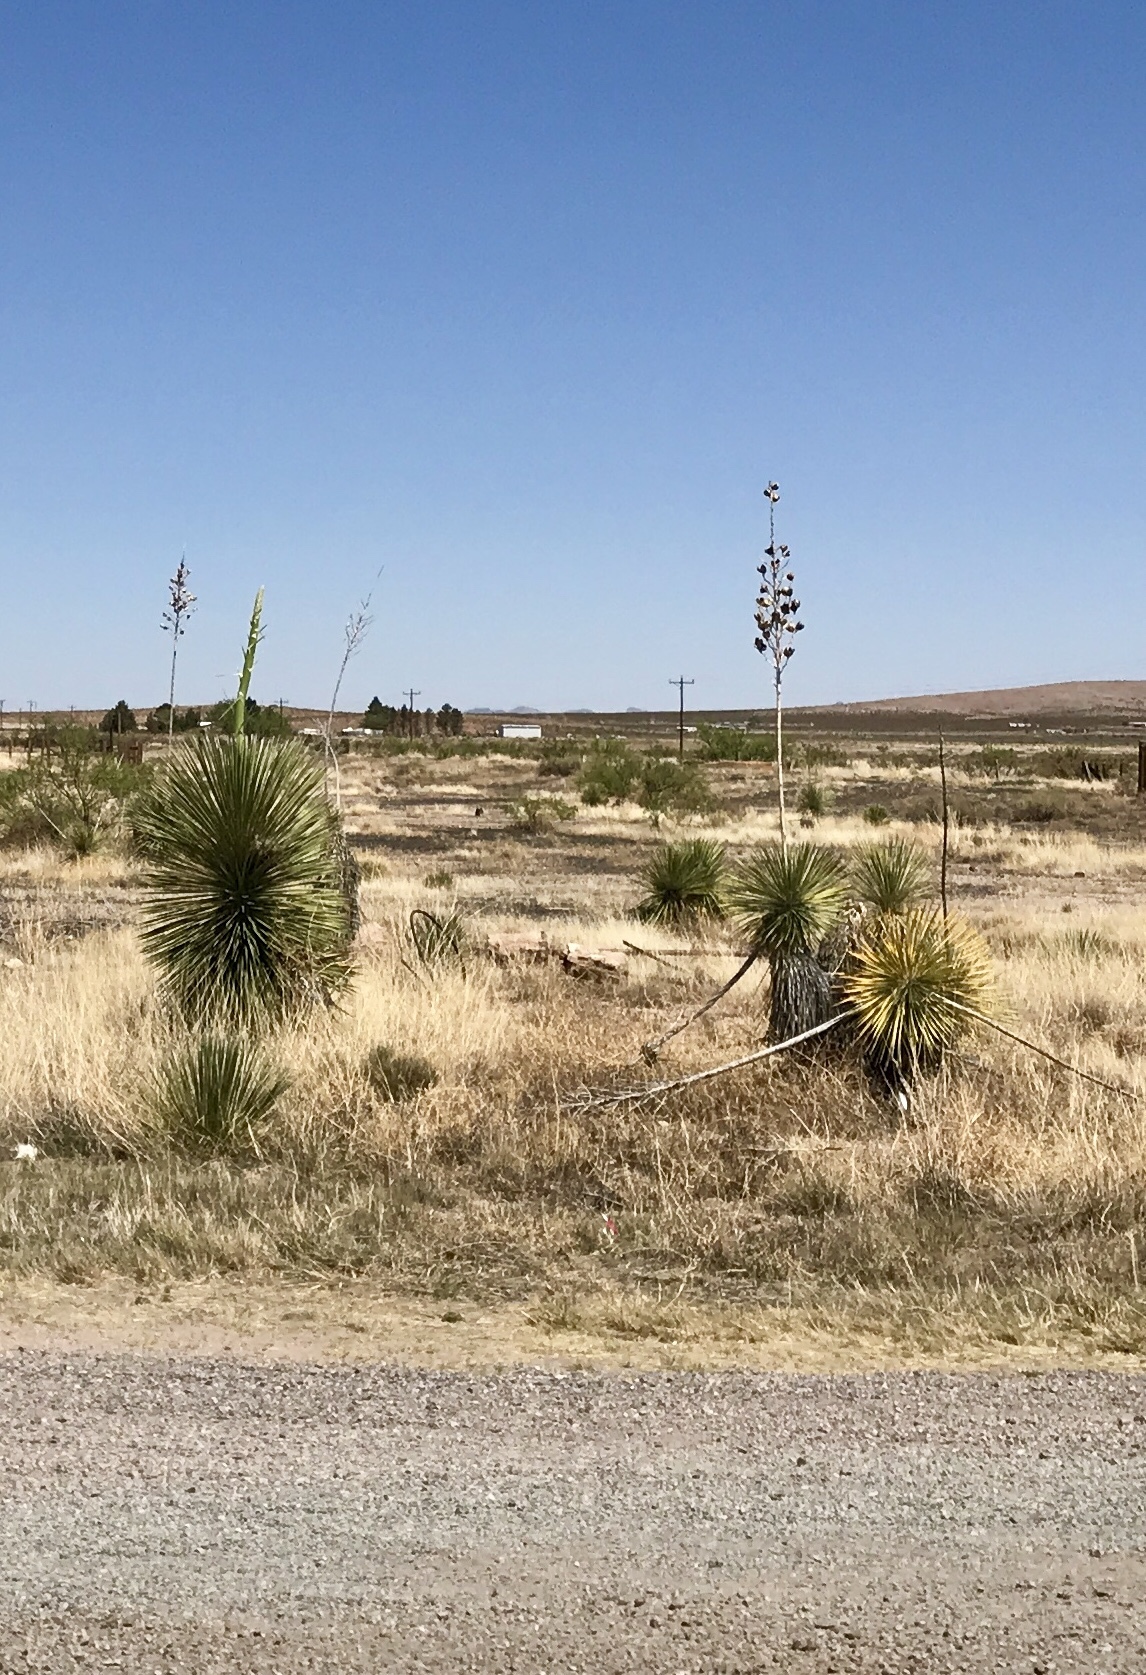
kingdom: Plantae
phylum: Tracheophyta
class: Liliopsida
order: Asparagales
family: Asparagaceae
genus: Yucca
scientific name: Yucca elata
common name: Palmella
